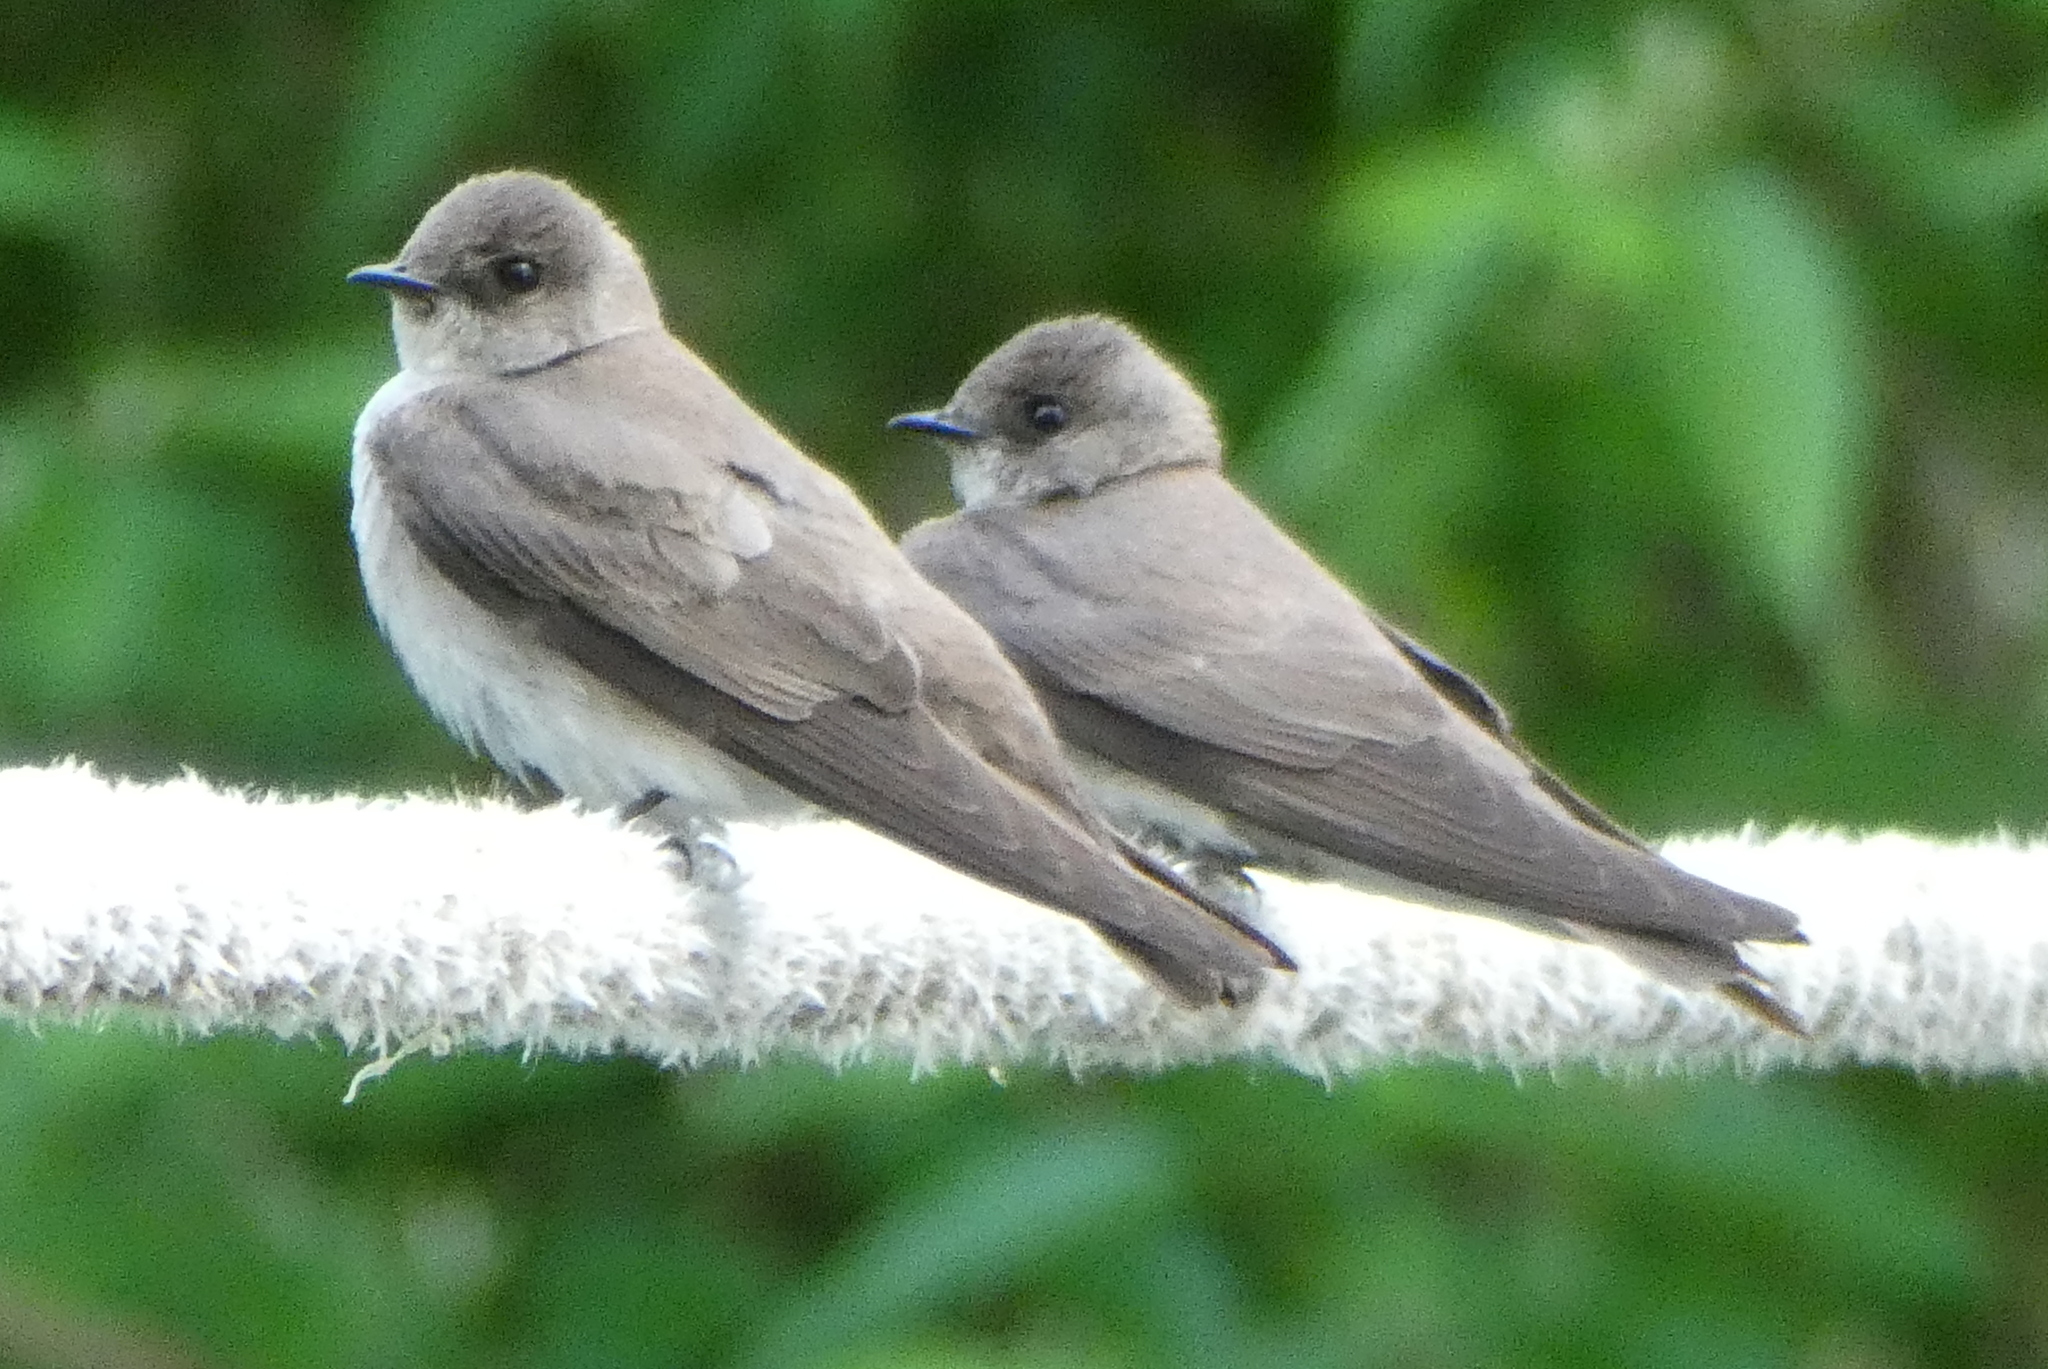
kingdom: Animalia
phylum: Chordata
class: Aves
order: Passeriformes
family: Hirundinidae
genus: Stelgidopteryx
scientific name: Stelgidopteryx serripennis
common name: Northern rough-winged swallow
